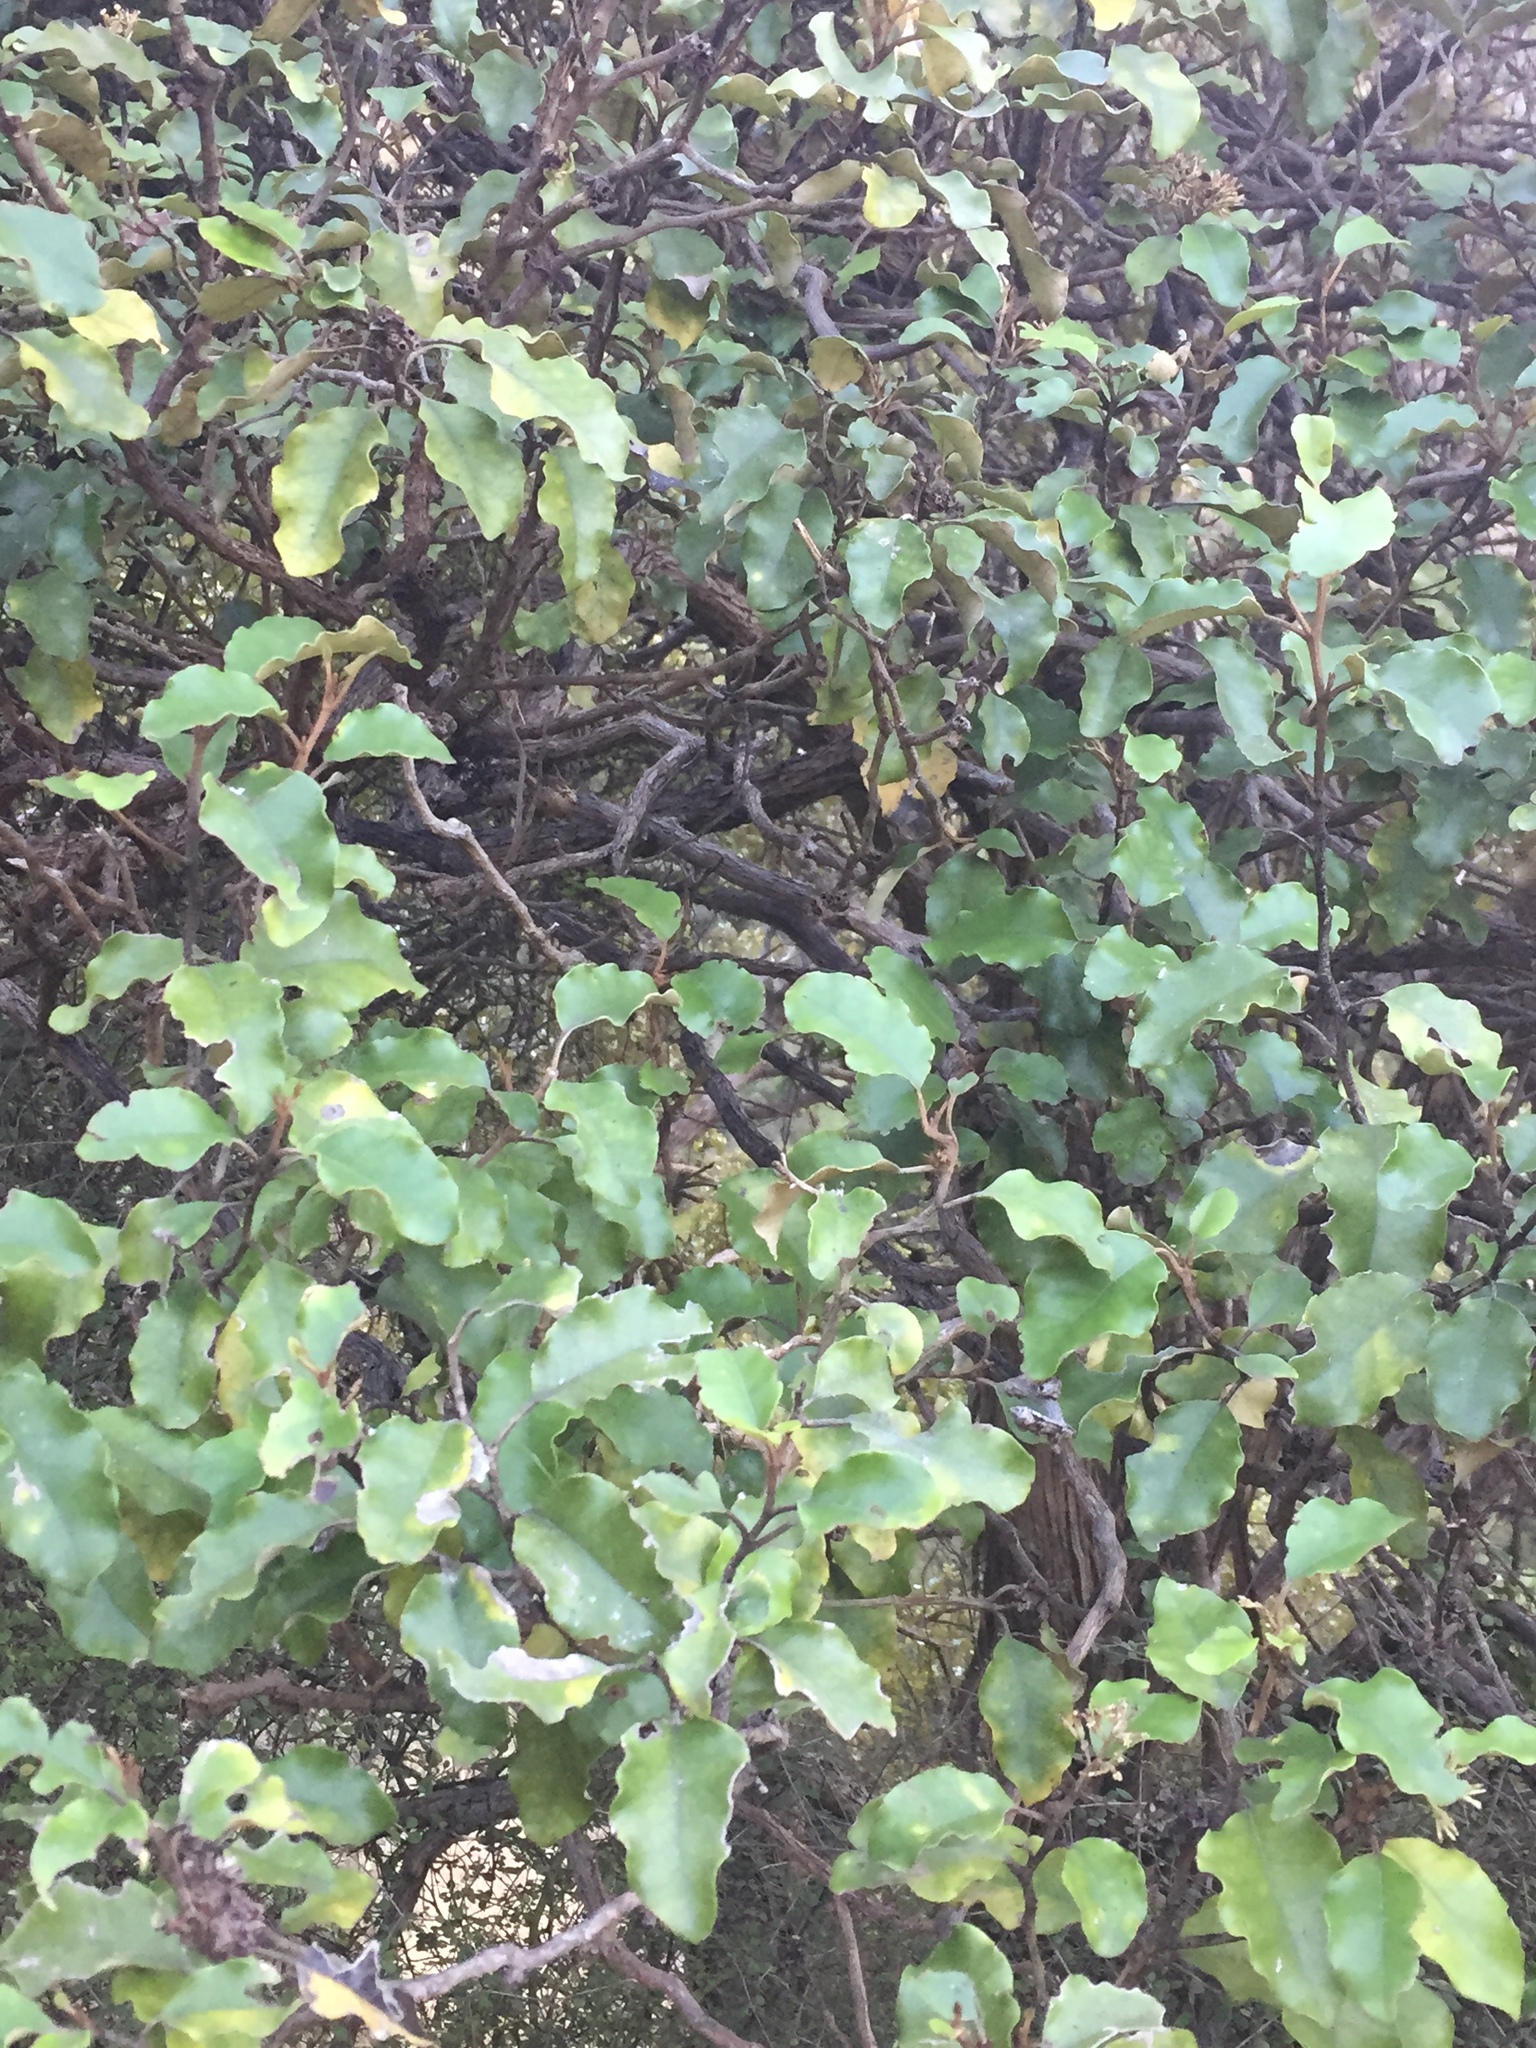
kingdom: Plantae
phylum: Tracheophyta
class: Magnoliopsida
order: Asterales
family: Asteraceae
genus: Olearia
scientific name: Olearia paniculata
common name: Akiraho
